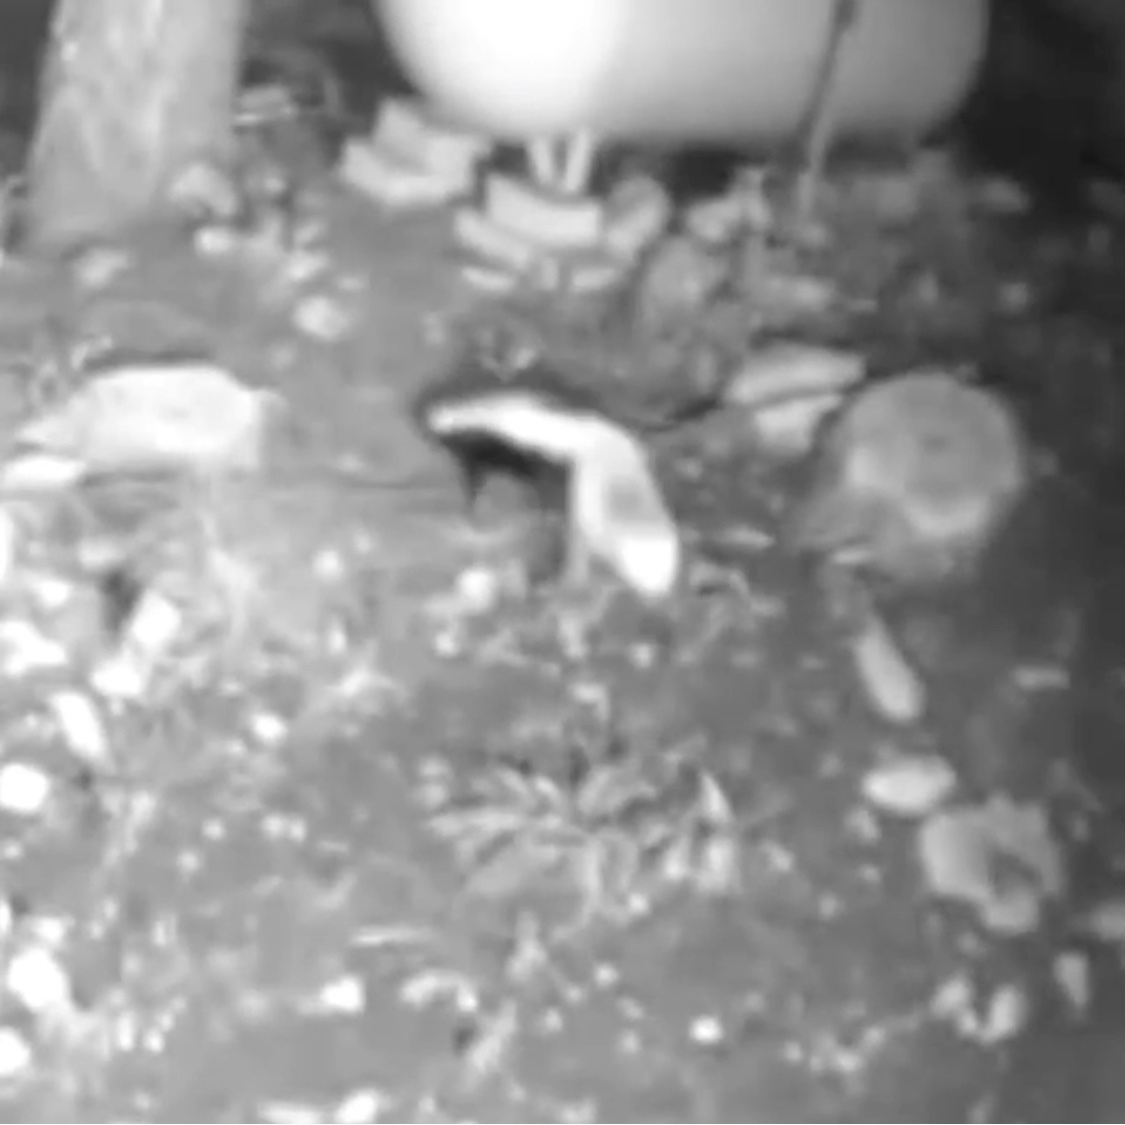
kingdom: Animalia
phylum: Chordata
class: Mammalia
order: Carnivora
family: Mephitidae
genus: Mephitis
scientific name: Mephitis mephitis
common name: Striped skunk
